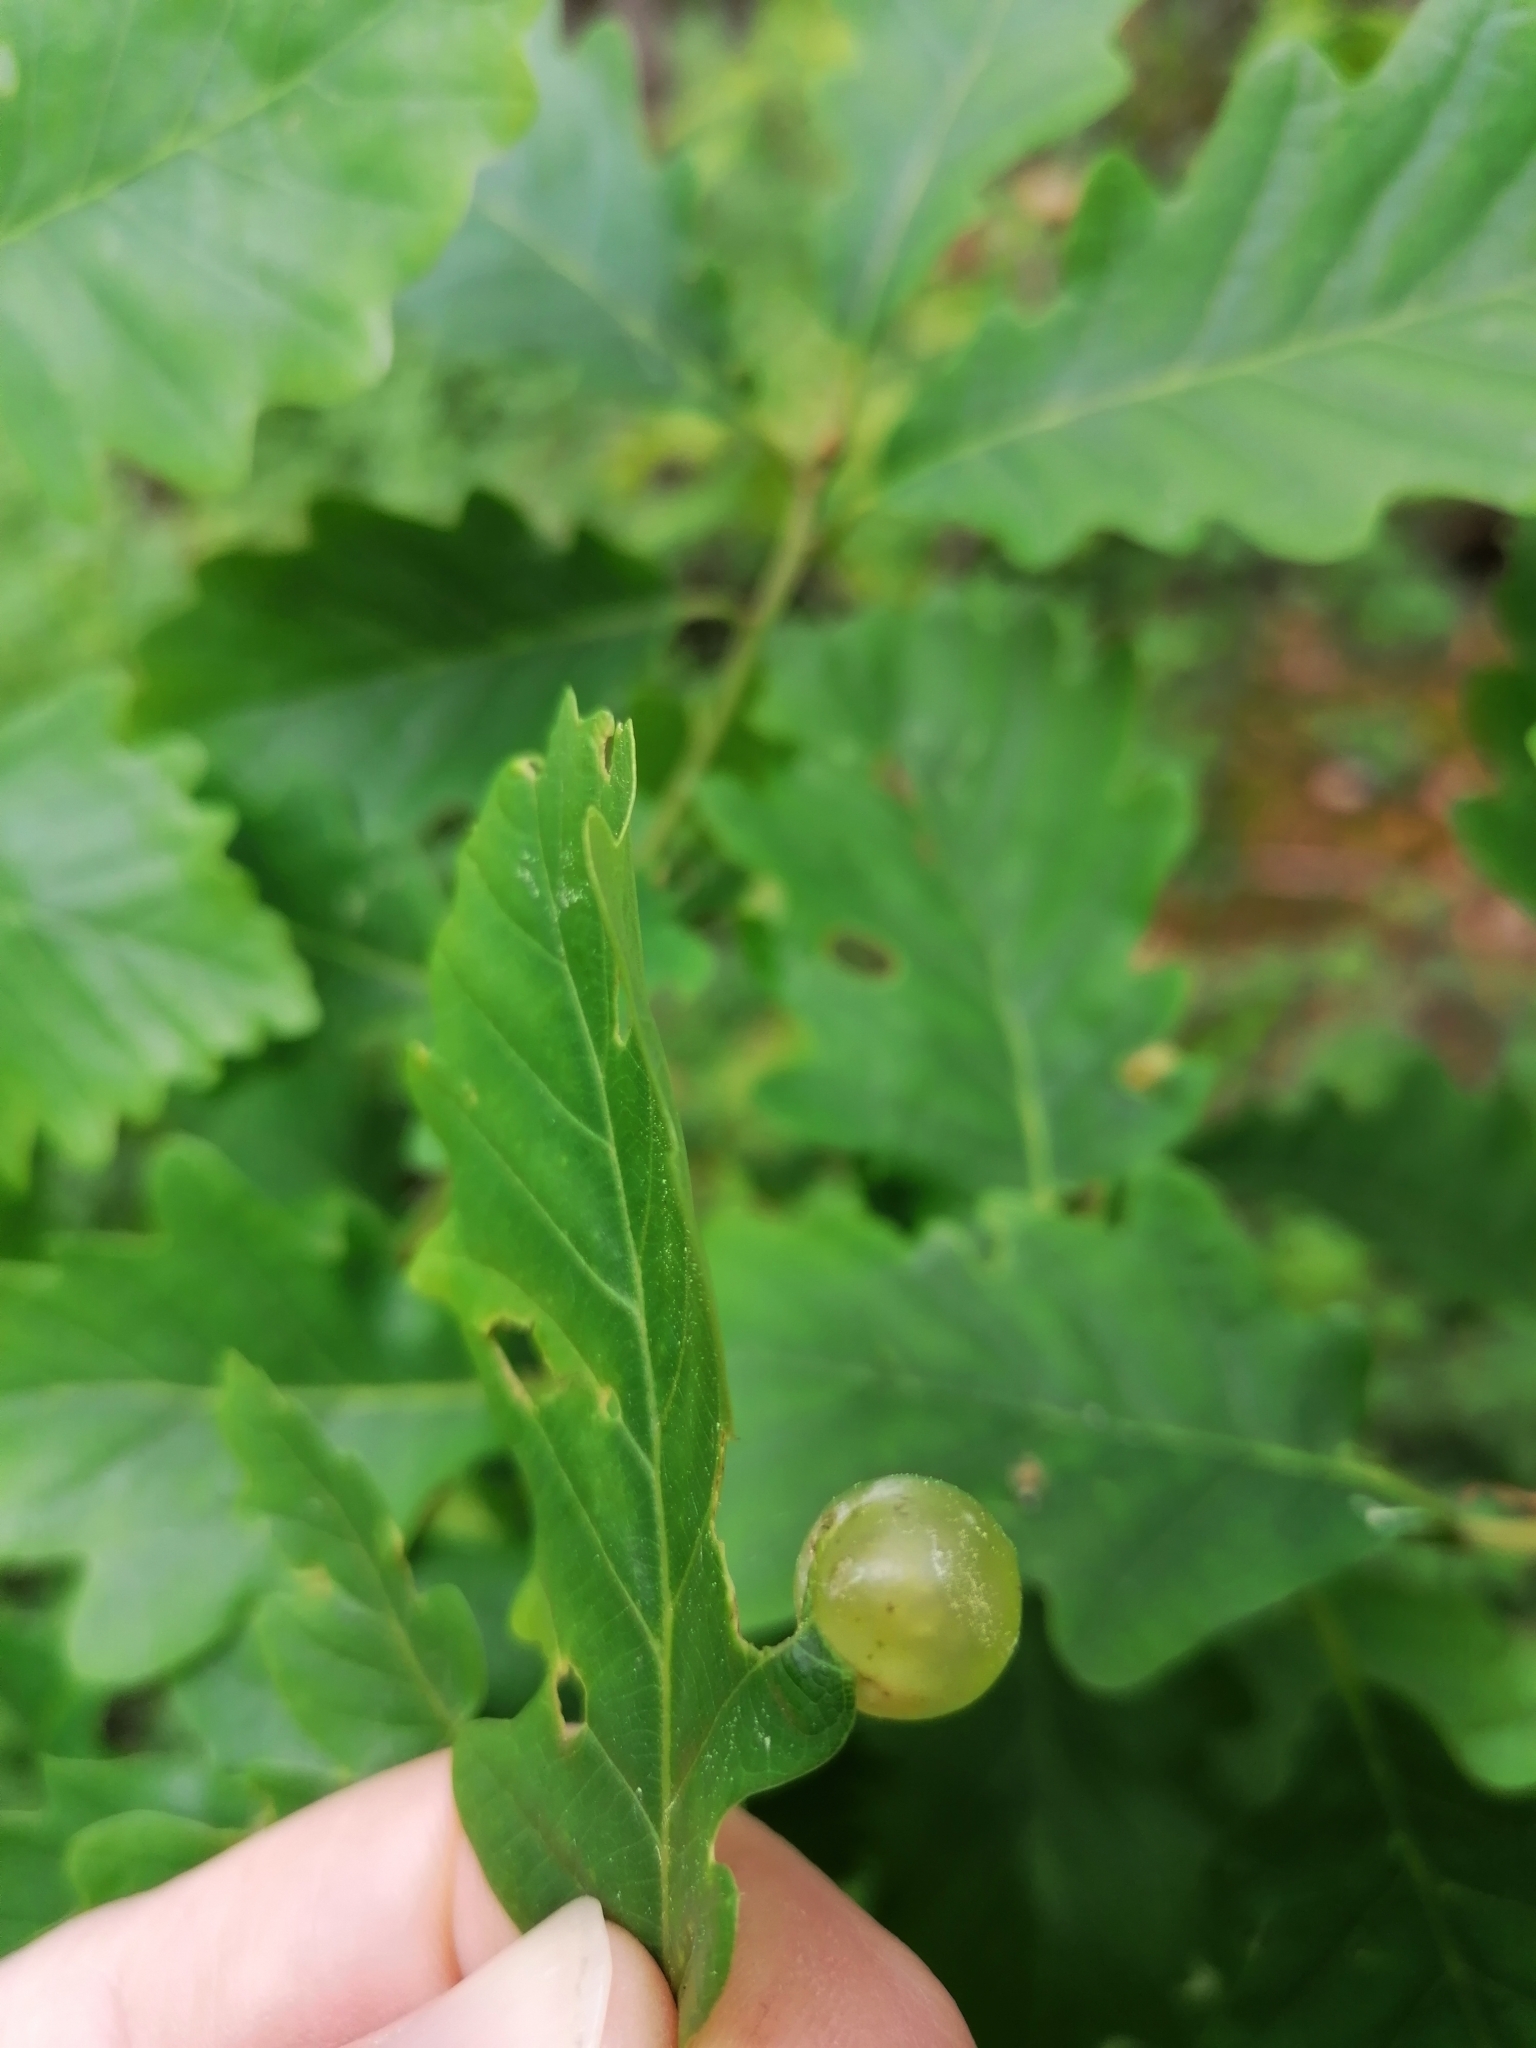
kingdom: Animalia
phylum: Arthropoda
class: Insecta
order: Hymenoptera
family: Cynipidae
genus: Neuroterus
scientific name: Neuroterus quercusbaccarum
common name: Common spangle gall
